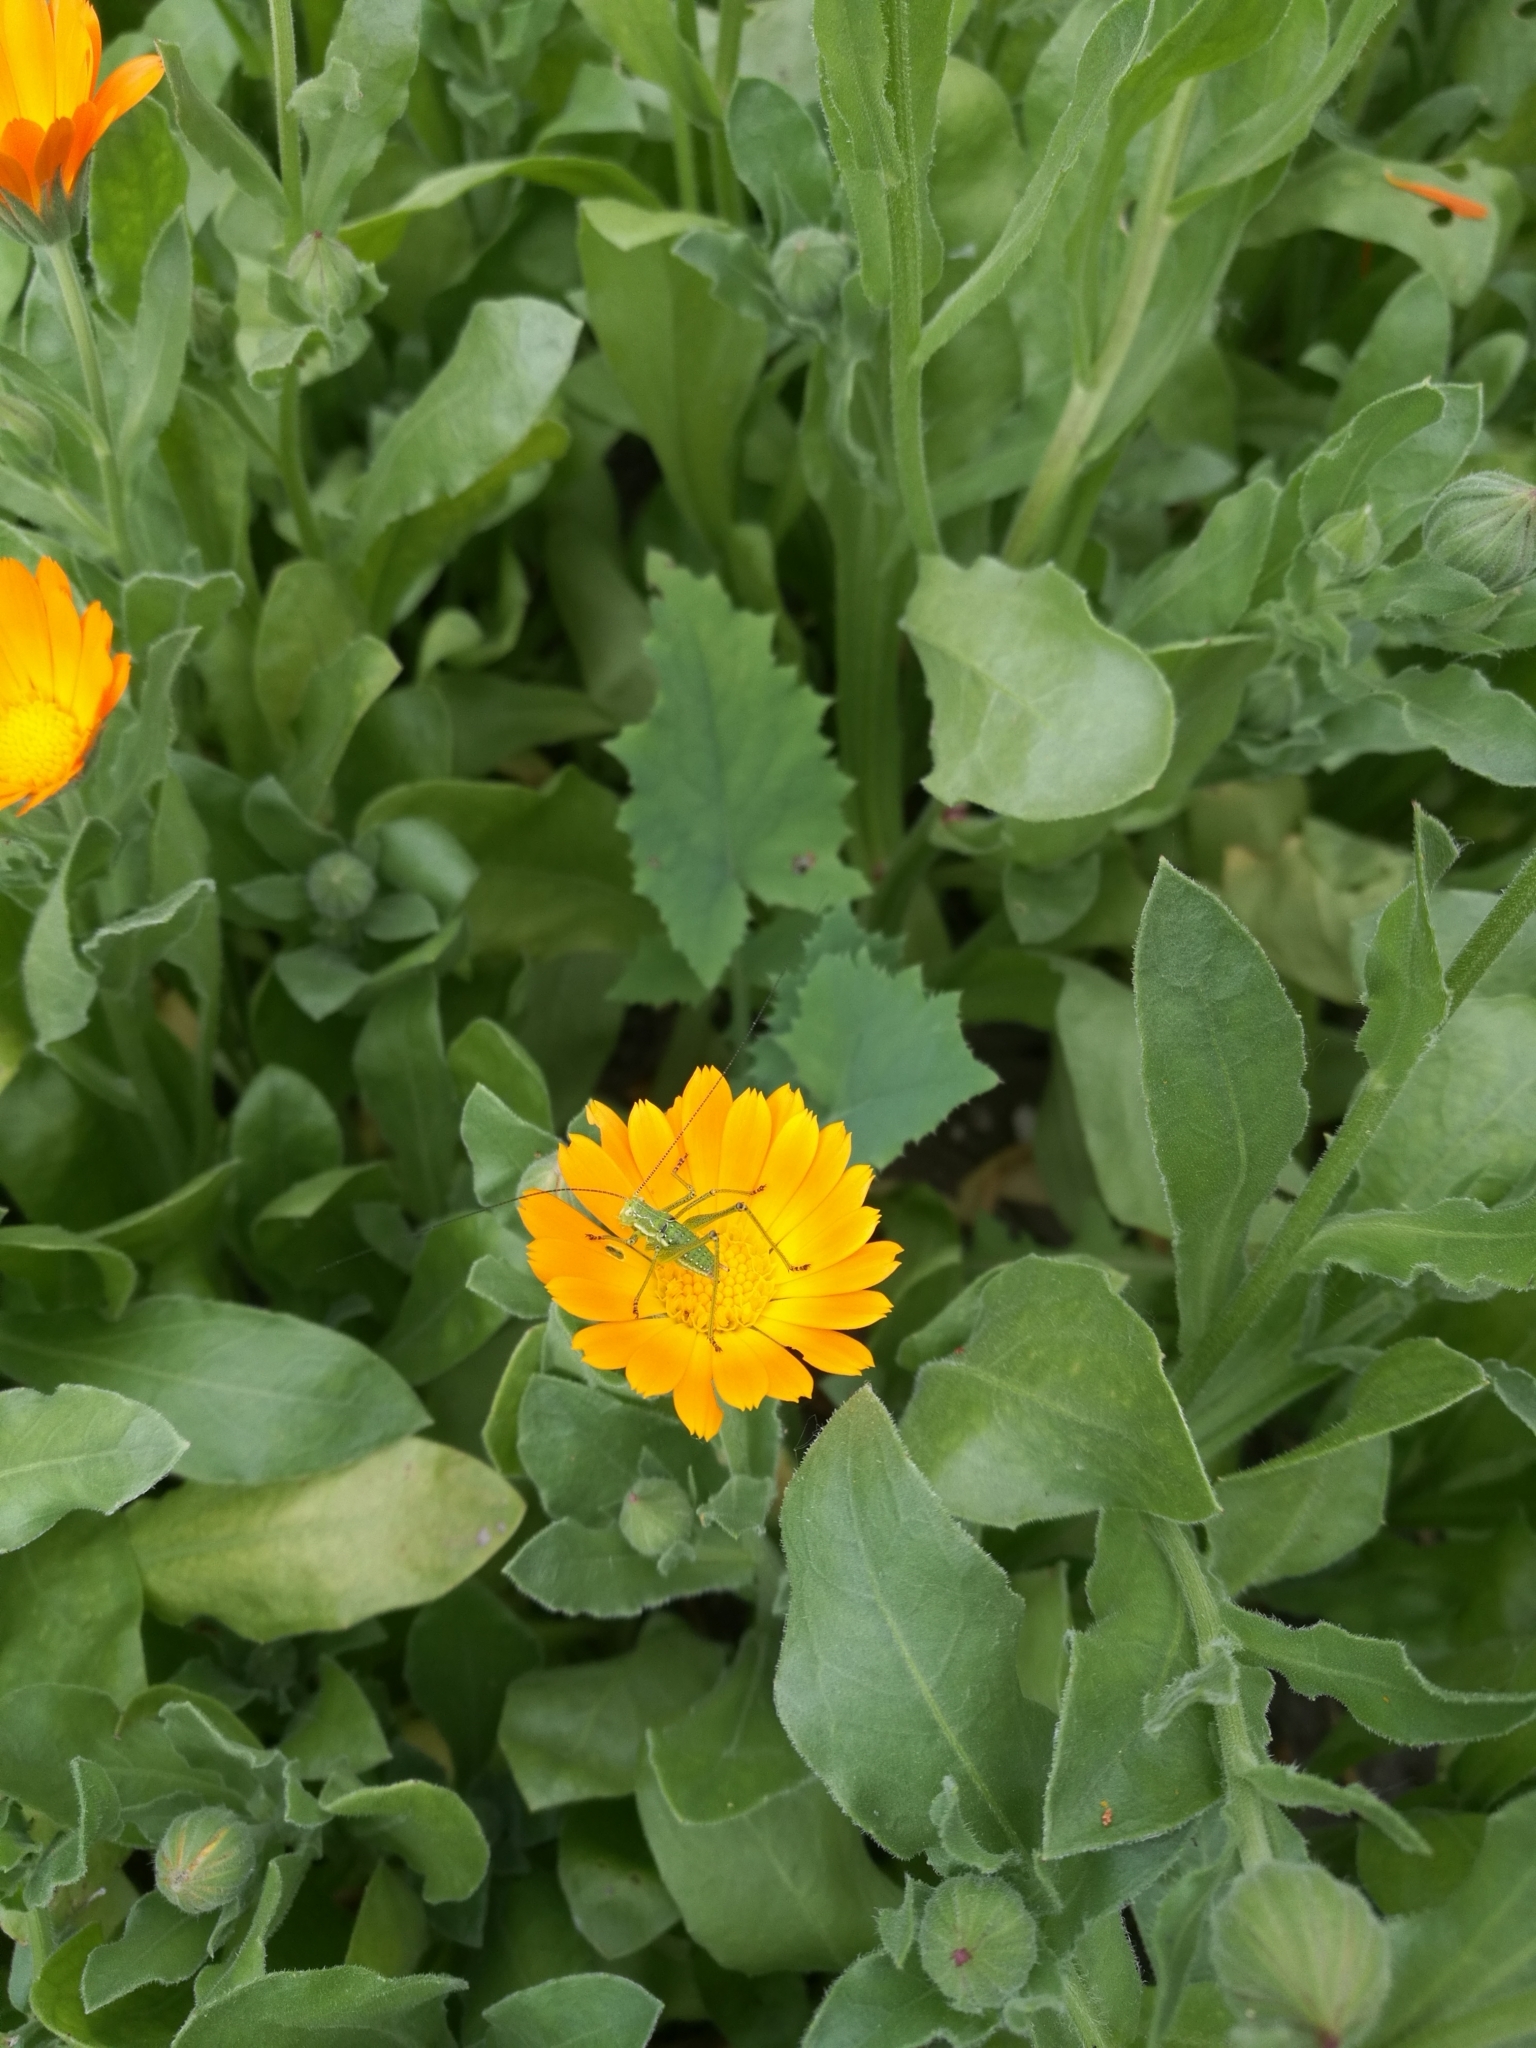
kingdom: Animalia
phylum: Arthropoda
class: Insecta
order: Orthoptera
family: Tettigoniidae
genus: Ephippiger
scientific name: Ephippiger ephippiger
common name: Eastern saddle bush-cricket
